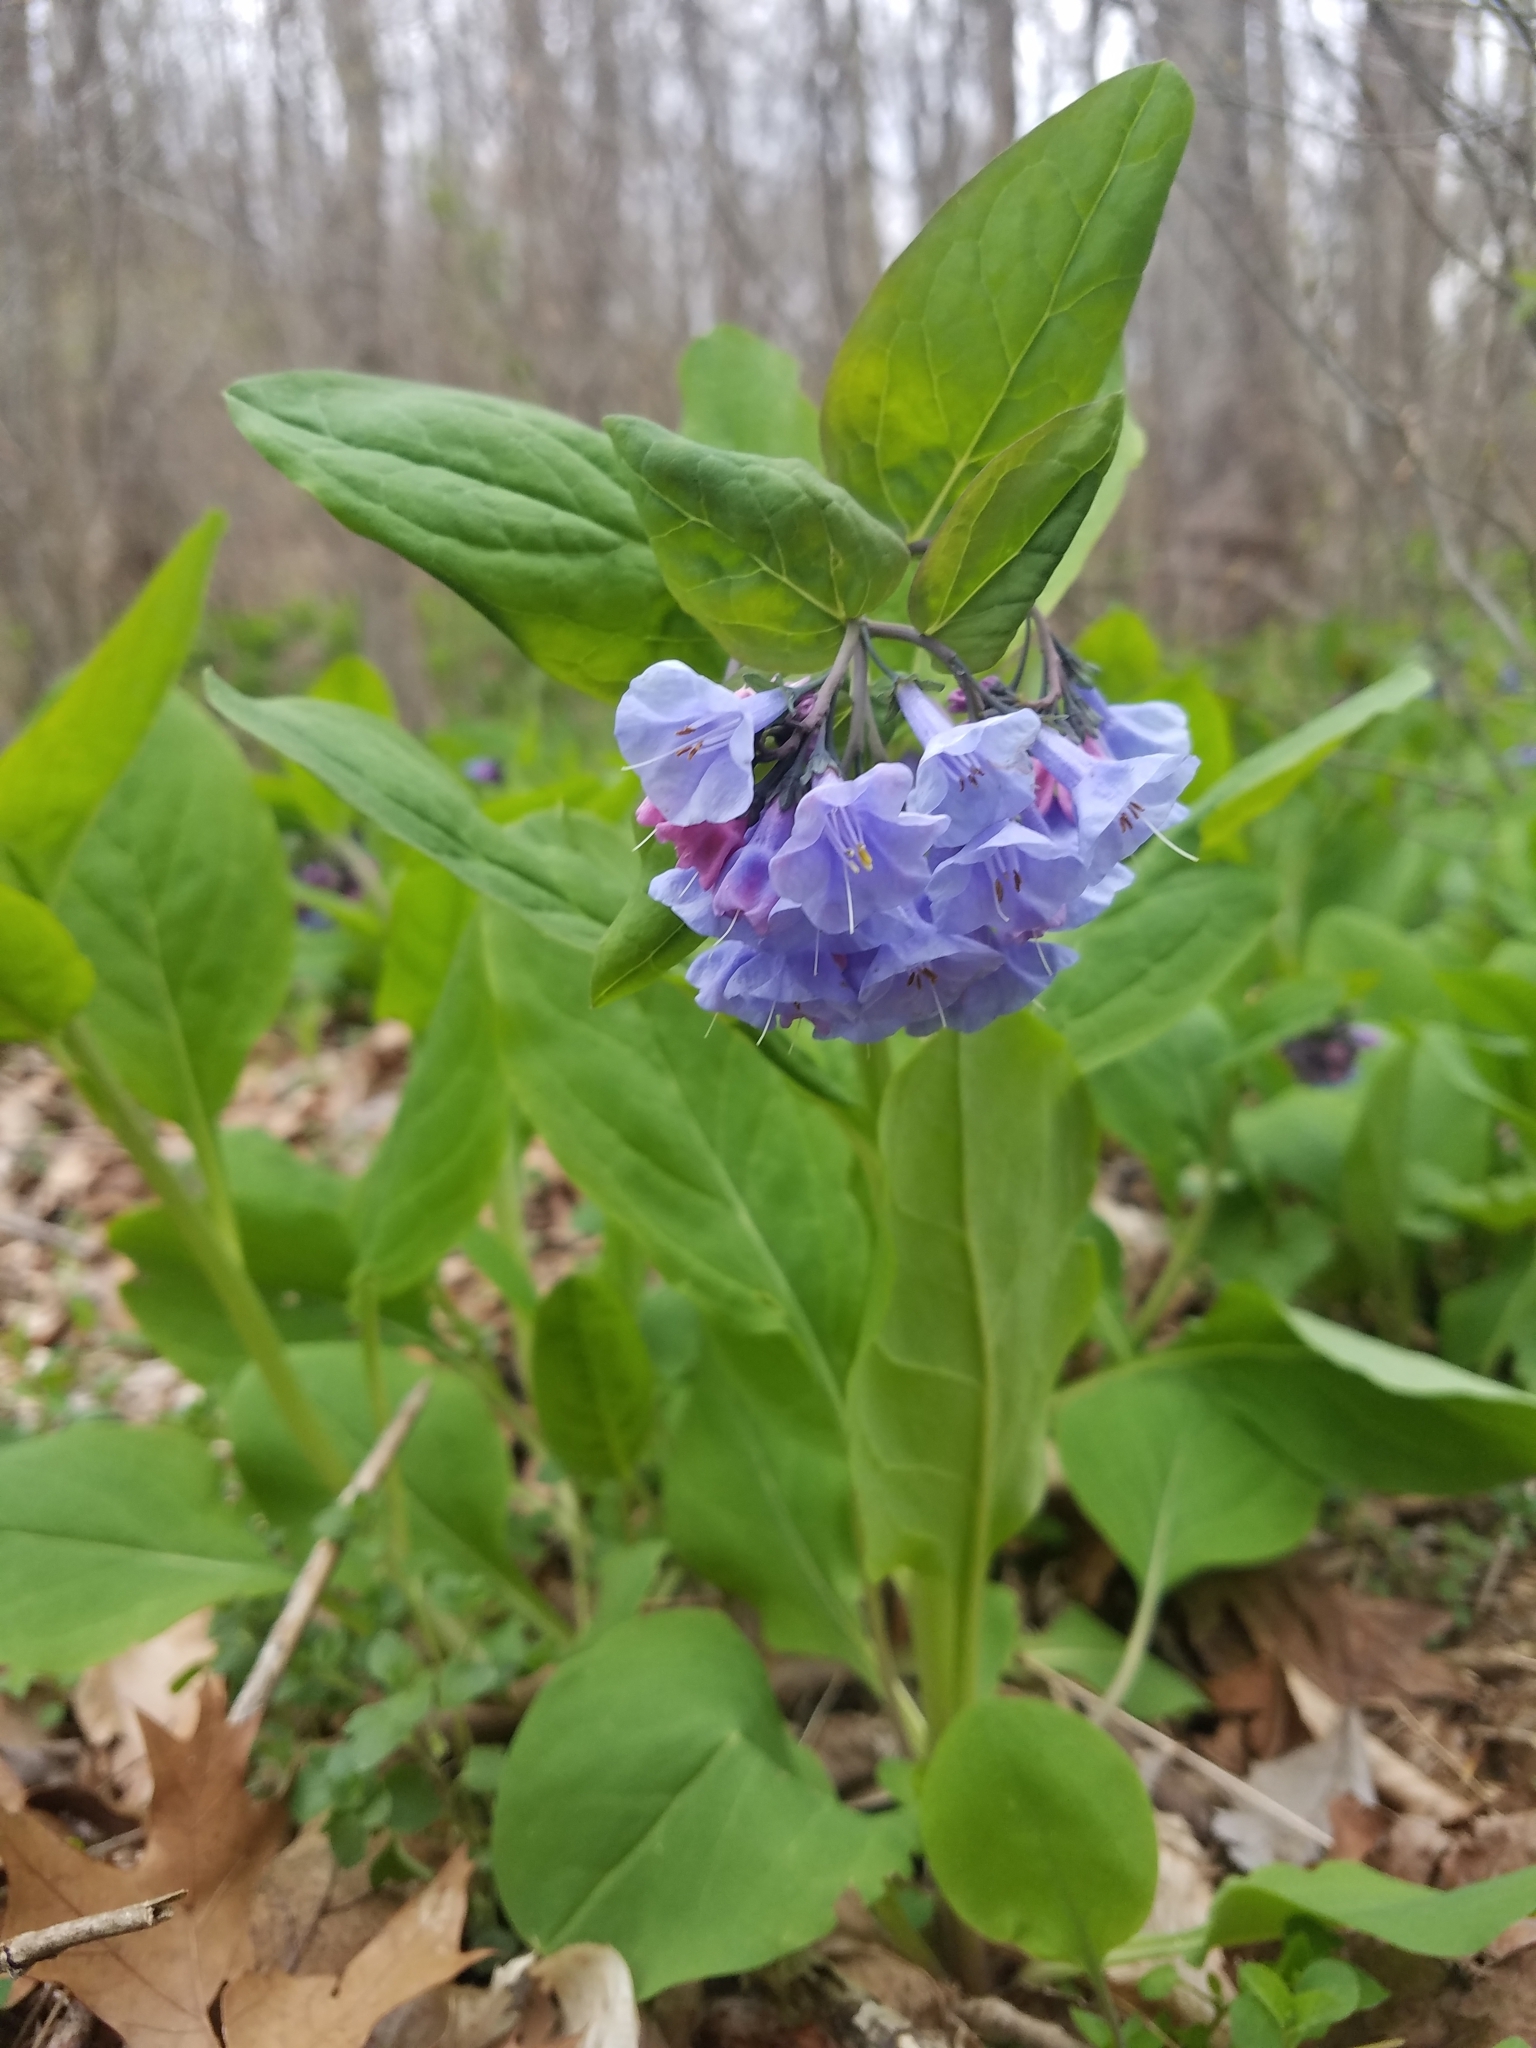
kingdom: Plantae
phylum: Tracheophyta
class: Magnoliopsida
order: Boraginales
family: Boraginaceae
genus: Mertensia
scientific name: Mertensia virginica
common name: Virginia bluebells
